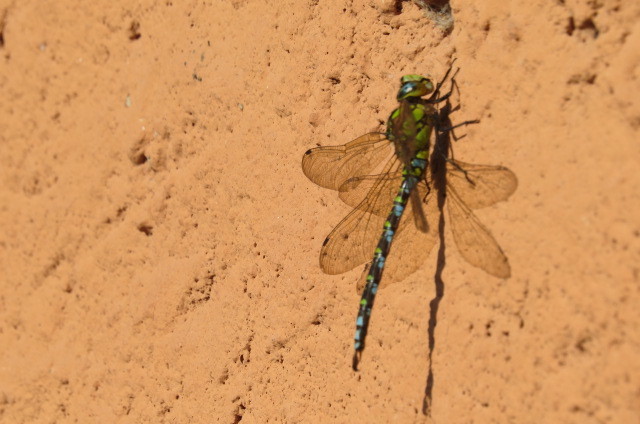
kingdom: Animalia
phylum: Arthropoda
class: Insecta
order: Odonata
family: Aeshnidae
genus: Aeshna
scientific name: Aeshna cyanea
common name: Southern hawker
